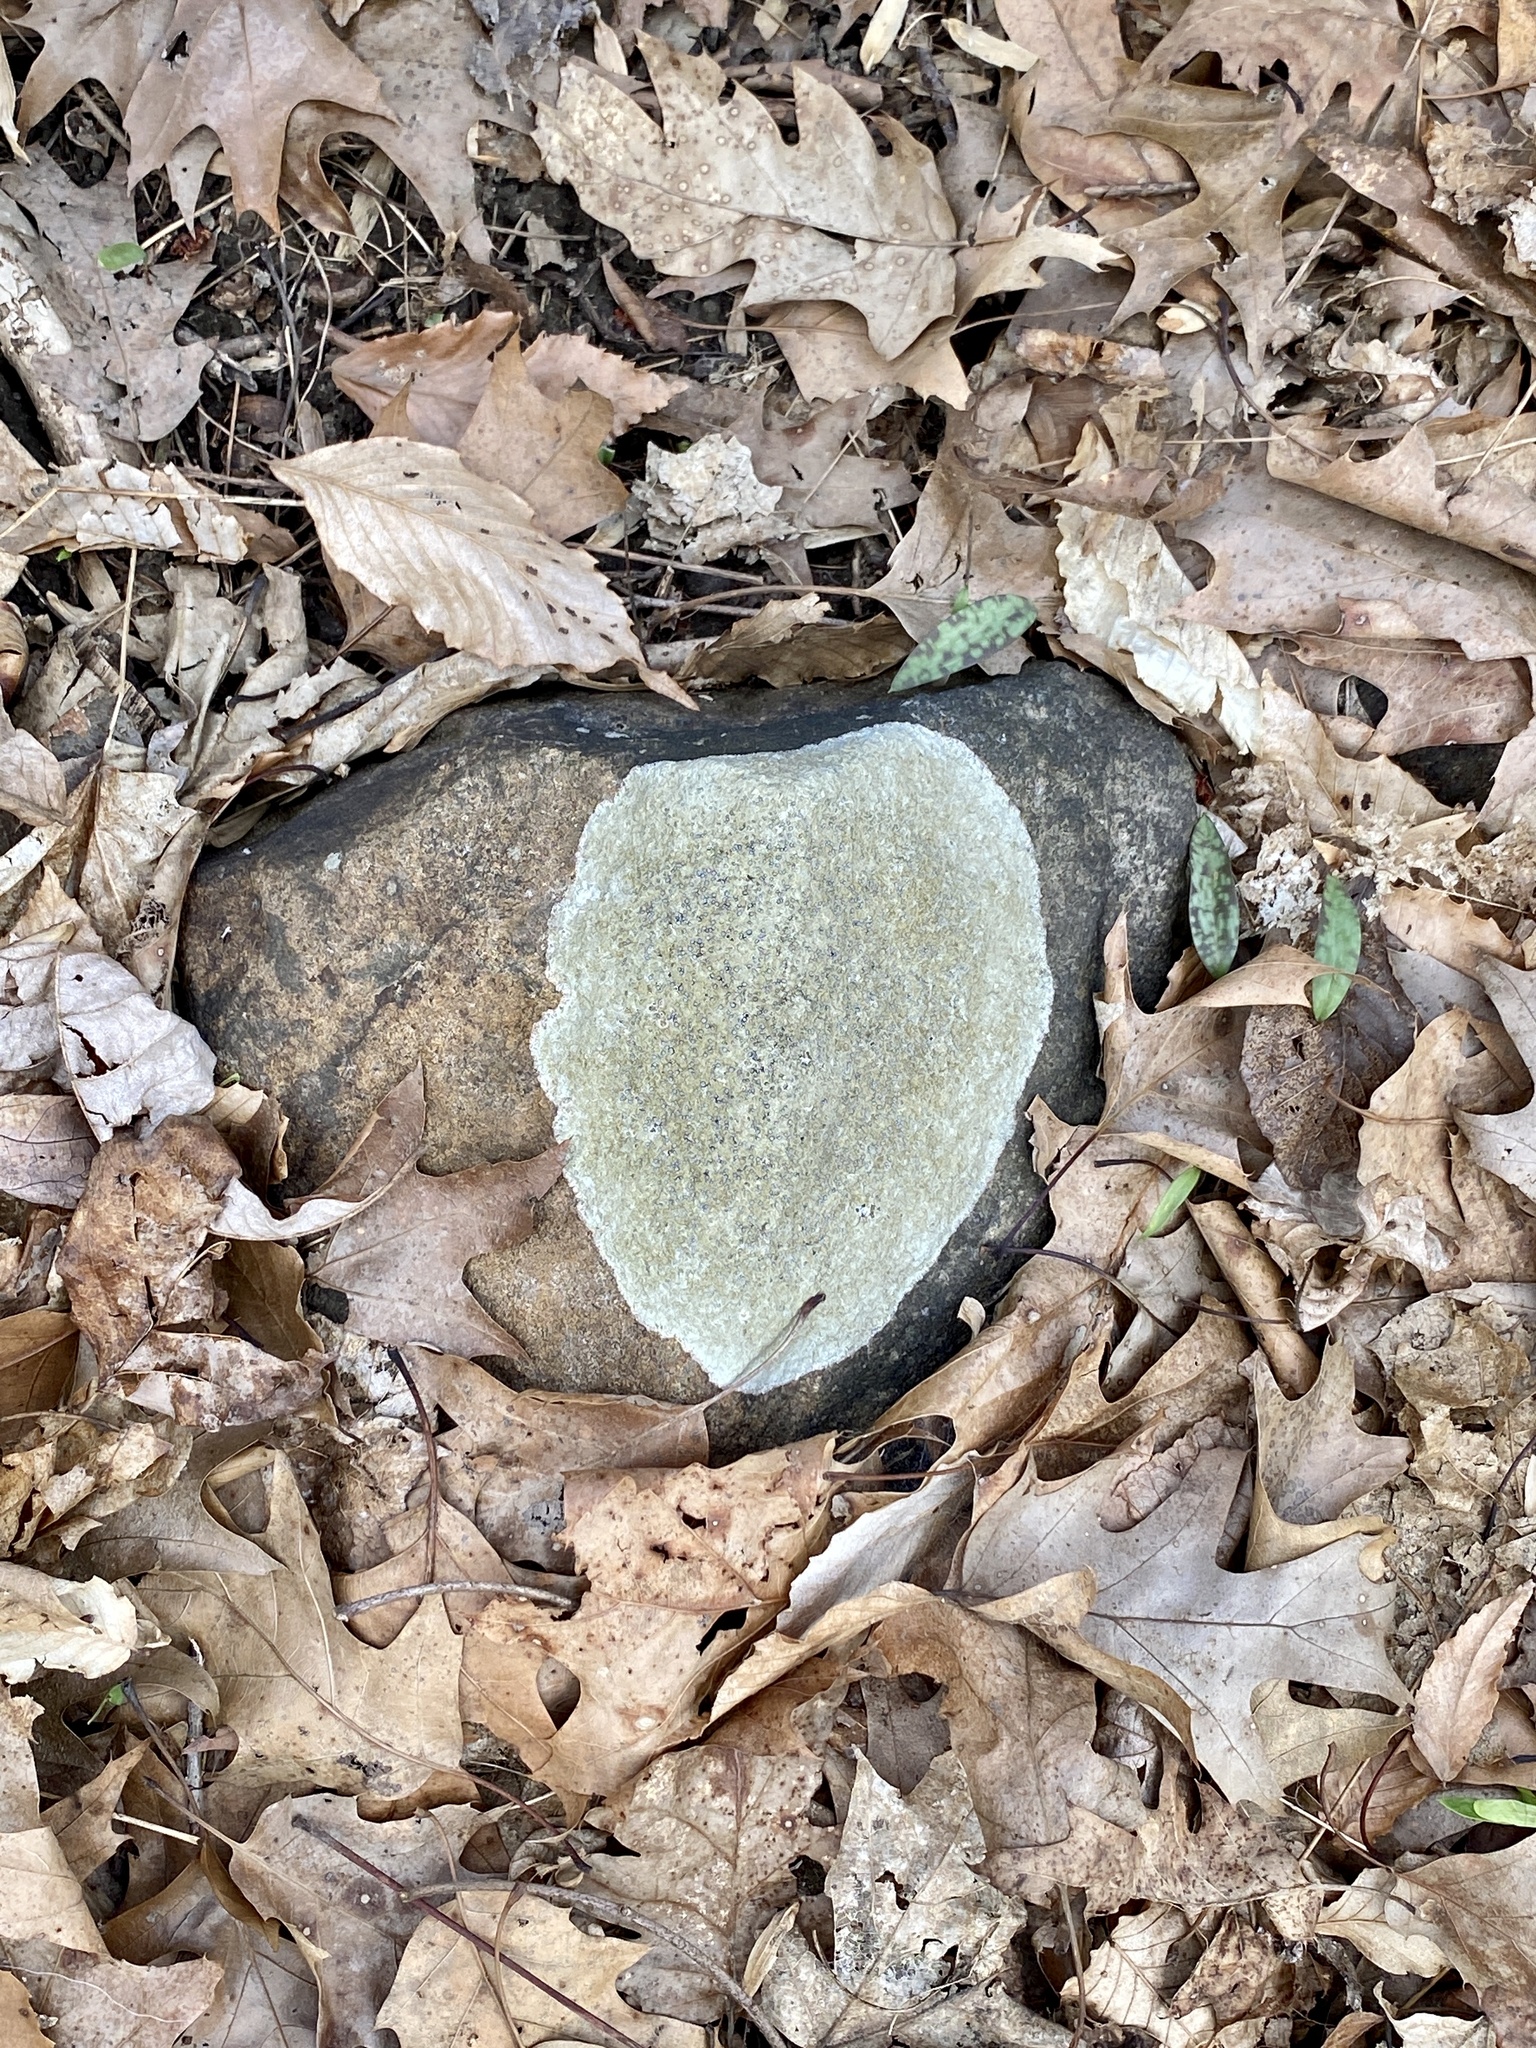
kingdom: Fungi
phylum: Ascomycota
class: Lecanoromycetes
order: Lecideales
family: Lecideaceae
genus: Porpidia
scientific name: Porpidia albocaerulescens
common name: Smokey-eyed boulder lichen
